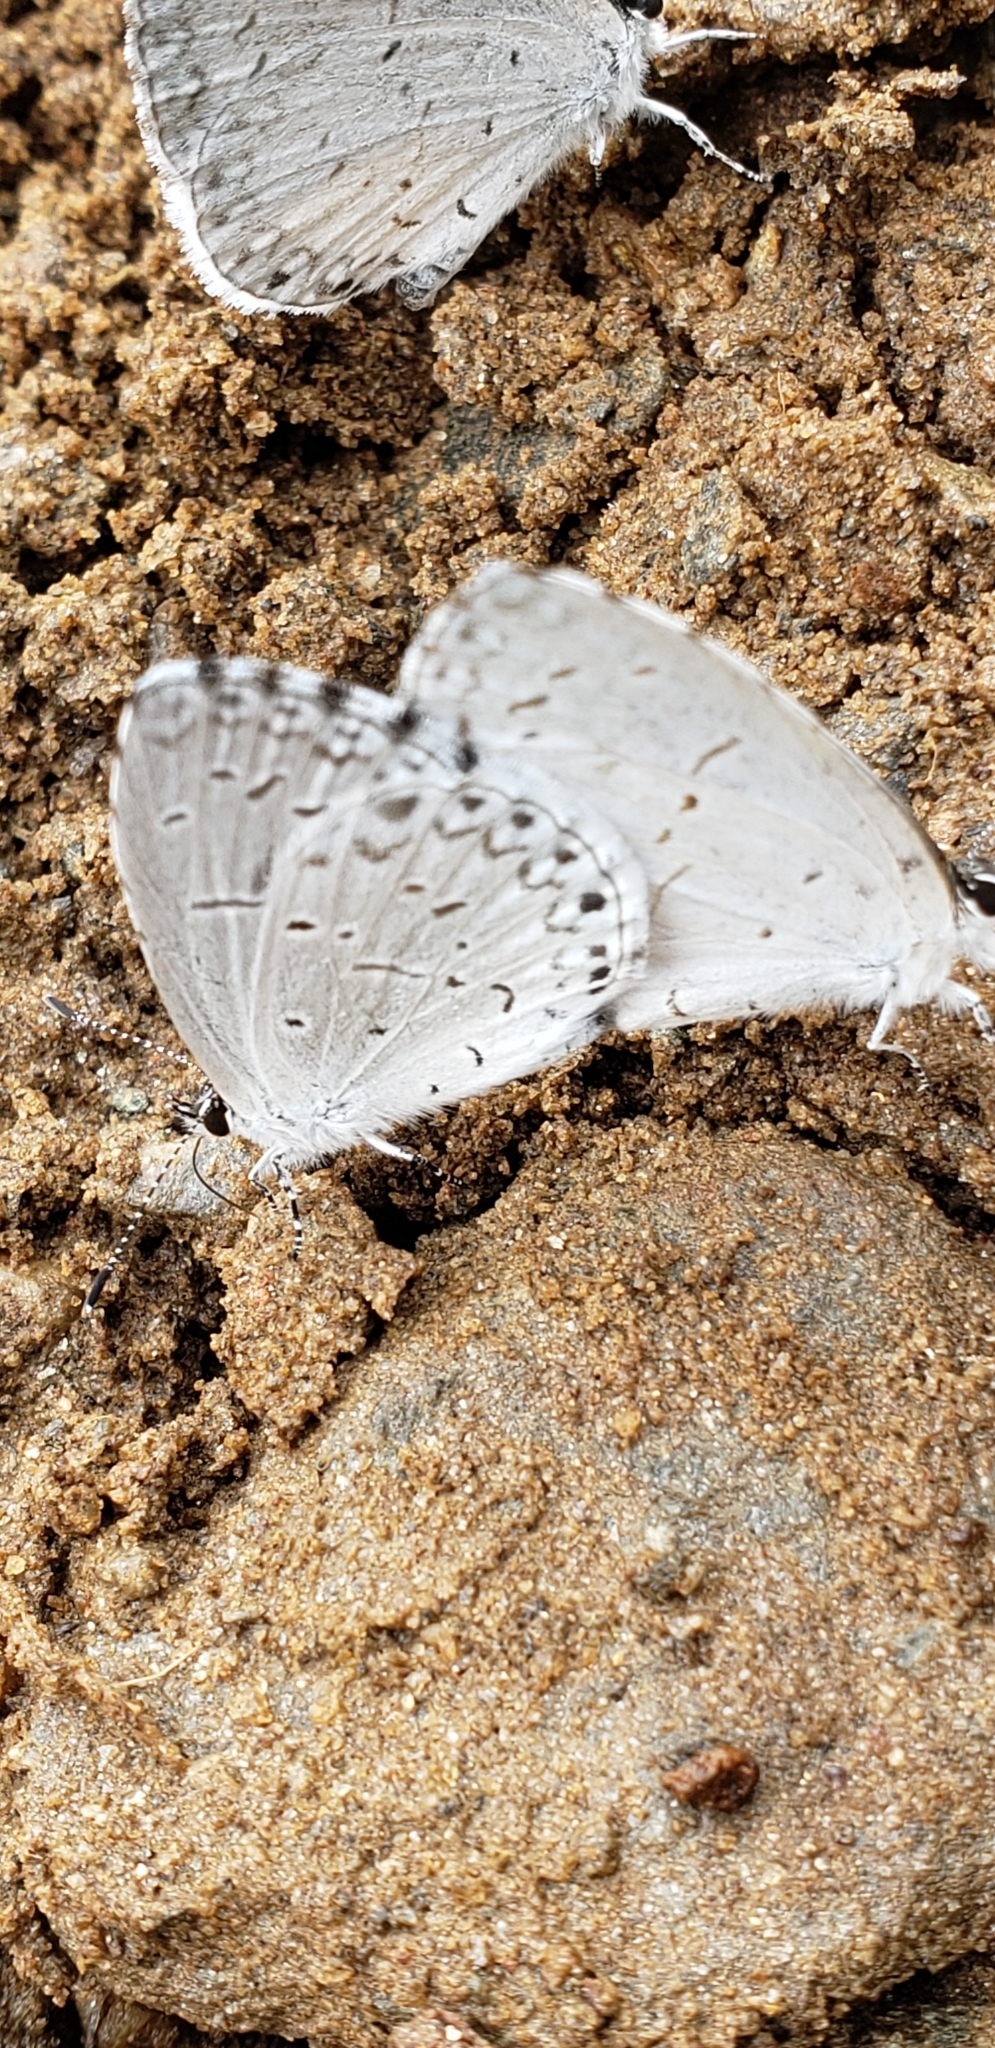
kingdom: Animalia
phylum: Arthropoda
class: Insecta
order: Lepidoptera
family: Lycaenidae
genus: Cyaniris
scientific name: Cyaniris neglecta
